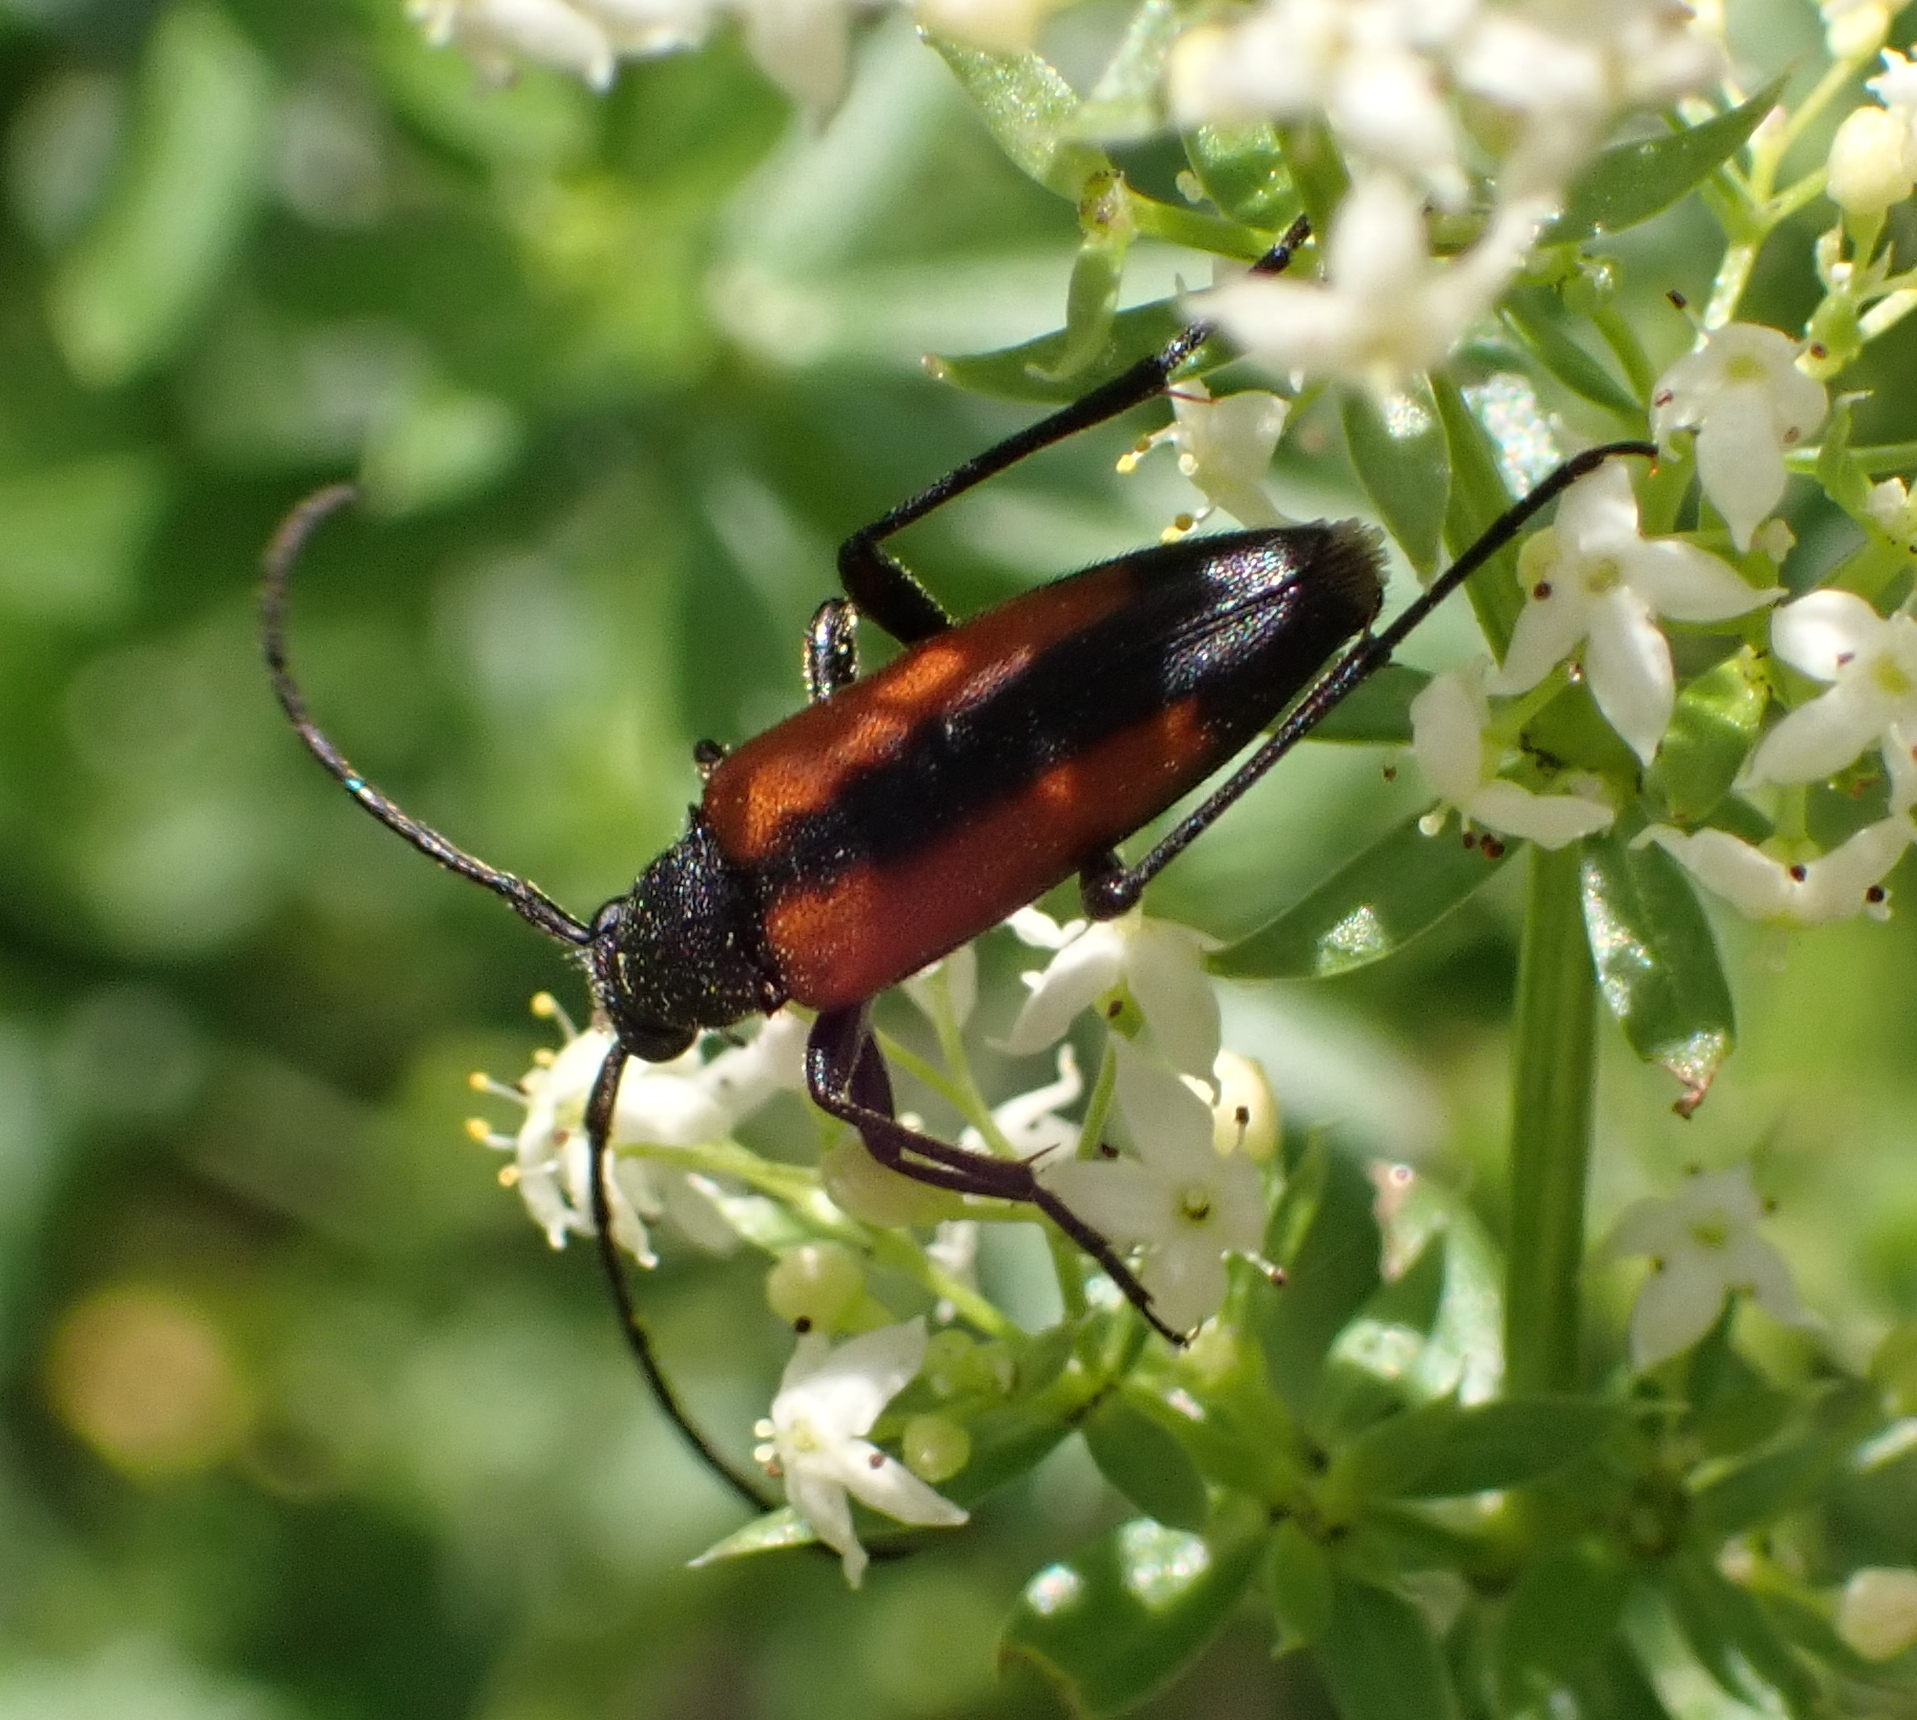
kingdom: Animalia
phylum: Arthropoda
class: Insecta
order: Coleoptera
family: Cerambycidae
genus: Stenurella
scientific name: Stenurella melanura
